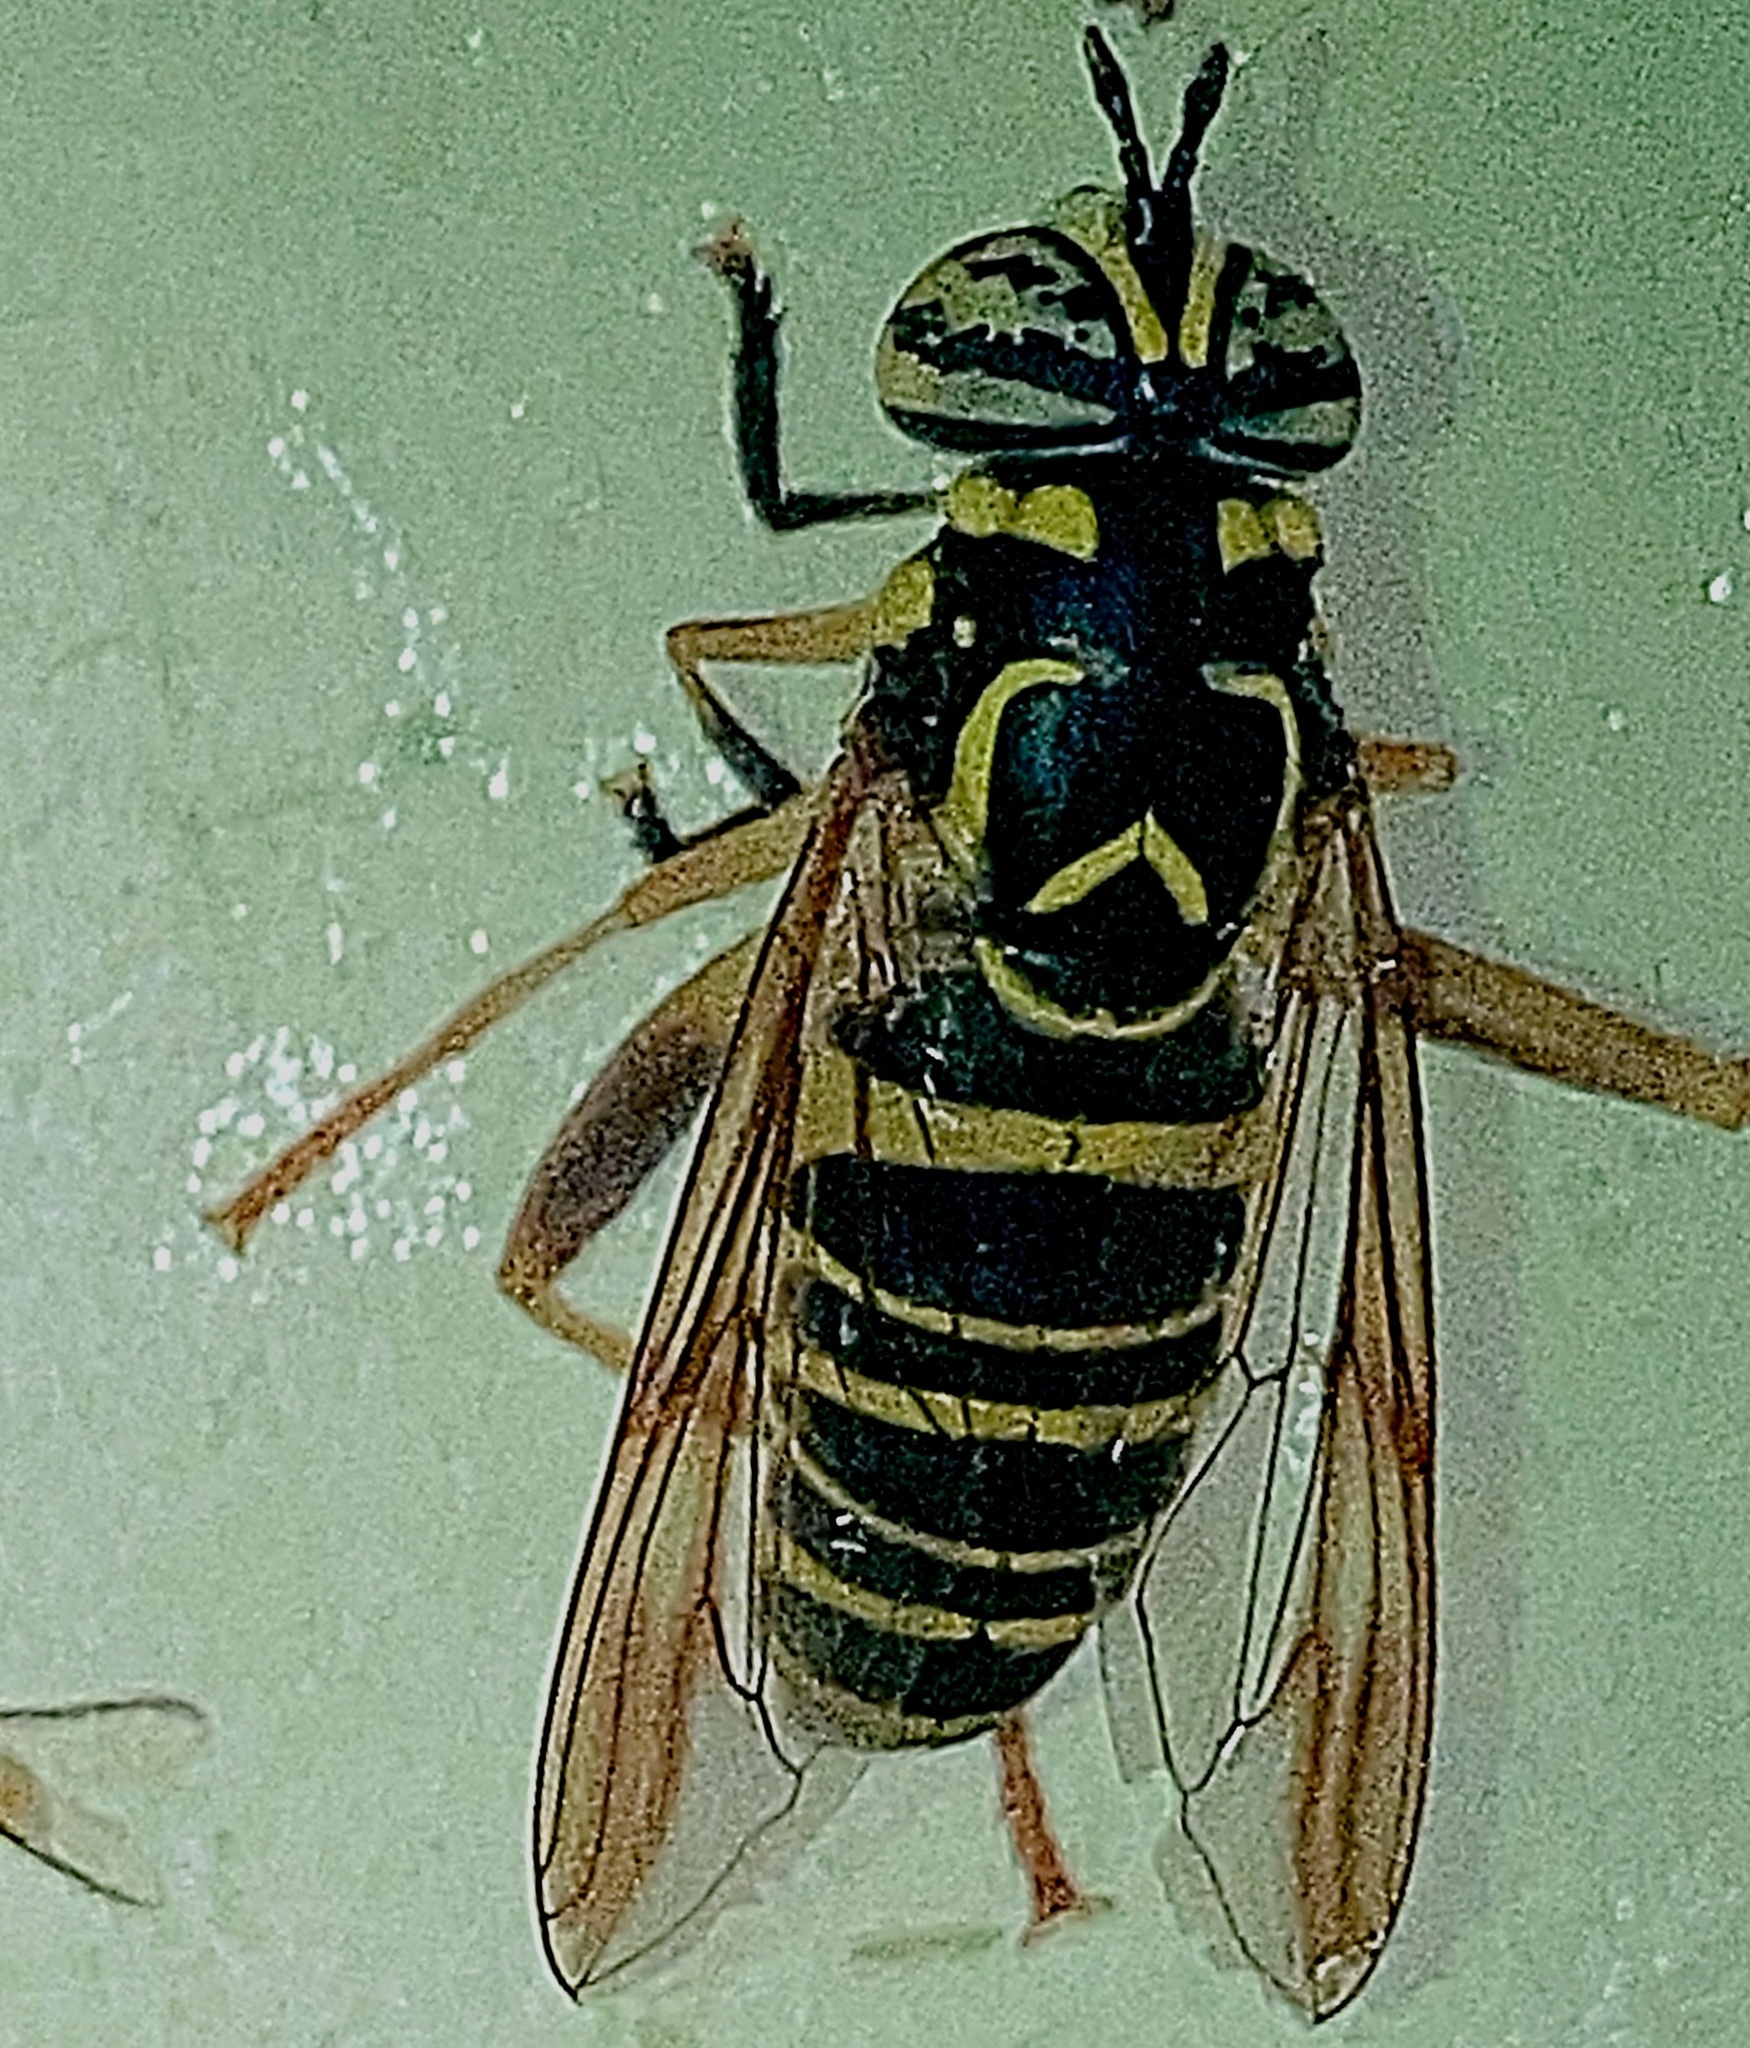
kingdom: Animalia
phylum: Arthropoda
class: Insecta
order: Diptera
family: Syrphidae
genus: Spilomyia
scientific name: Spilomyia longicornis
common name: Eastern hornet fly
